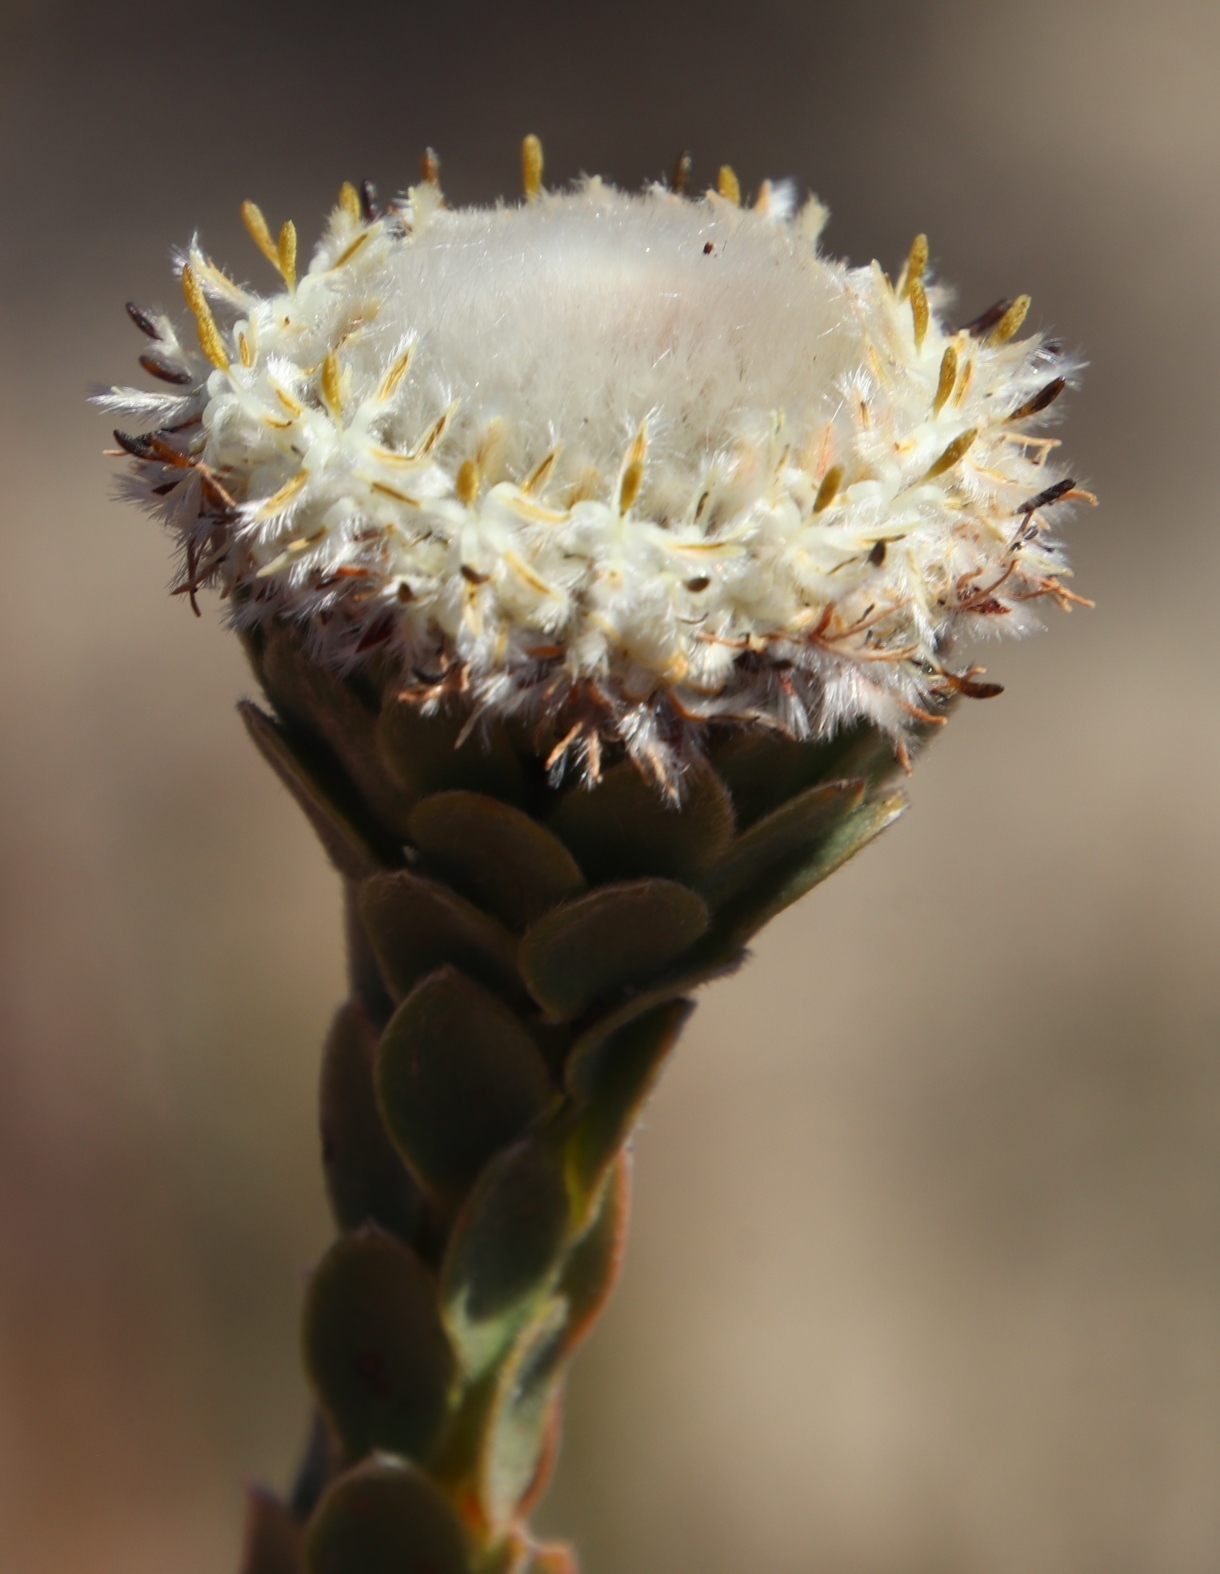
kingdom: Plantae
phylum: Tracheophyta
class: Magnoliopsida
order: Proteales
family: Proteaceae
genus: Leucadendron
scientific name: Leucadendron concavum
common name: Pakhuis conebush
